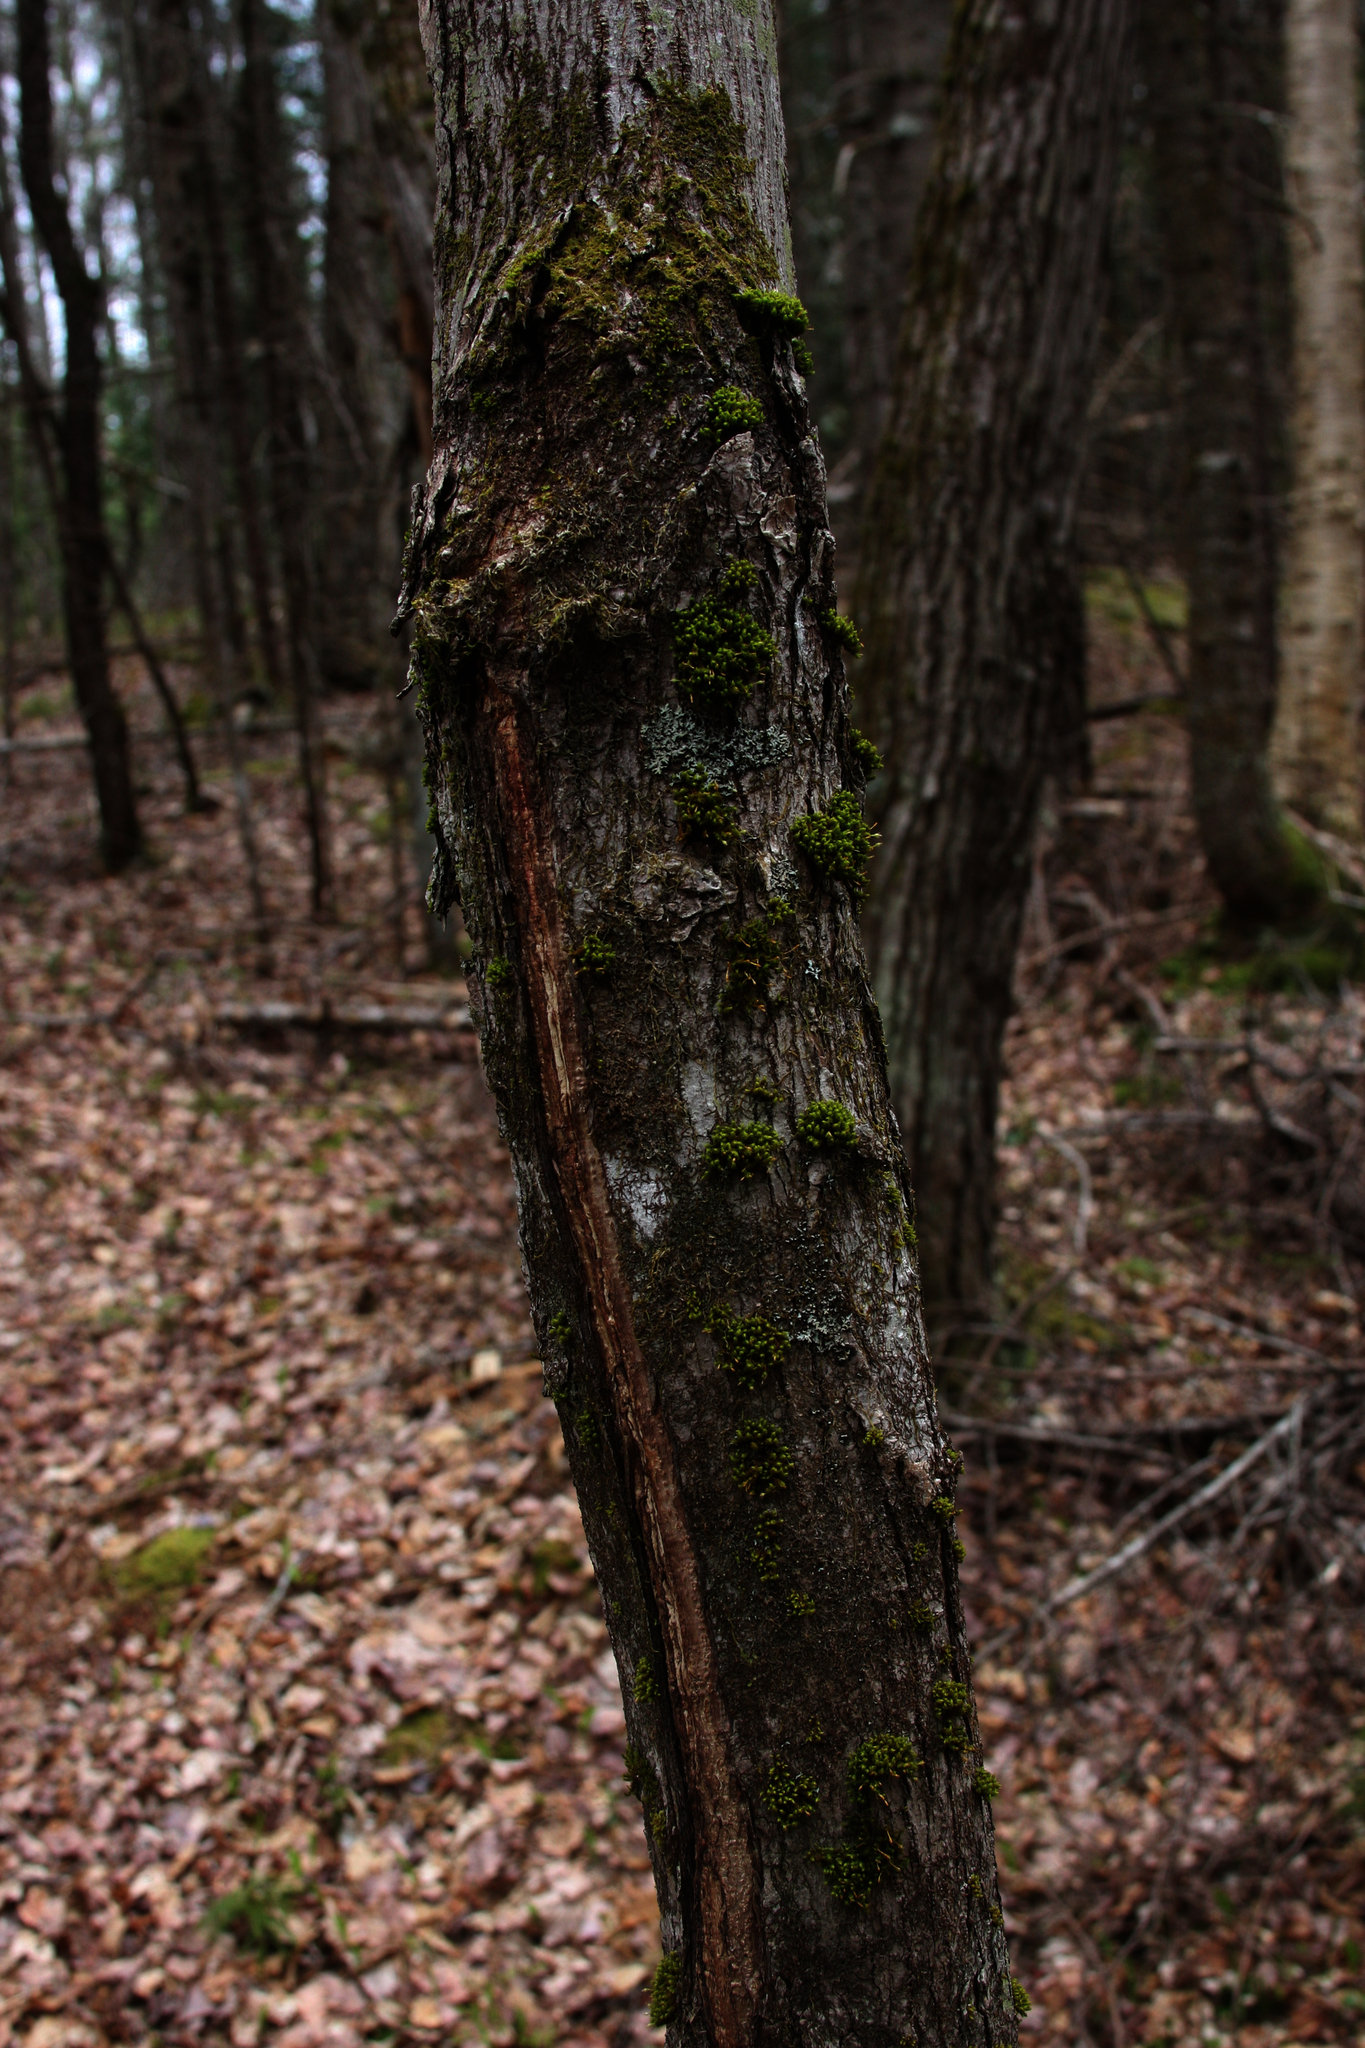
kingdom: Plantae
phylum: Bryophyta
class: Bryopsida
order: Orthotrichales
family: Orthotrichaceae
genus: Ulota
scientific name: Ulota crispa
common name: Crisped pincushion moss
